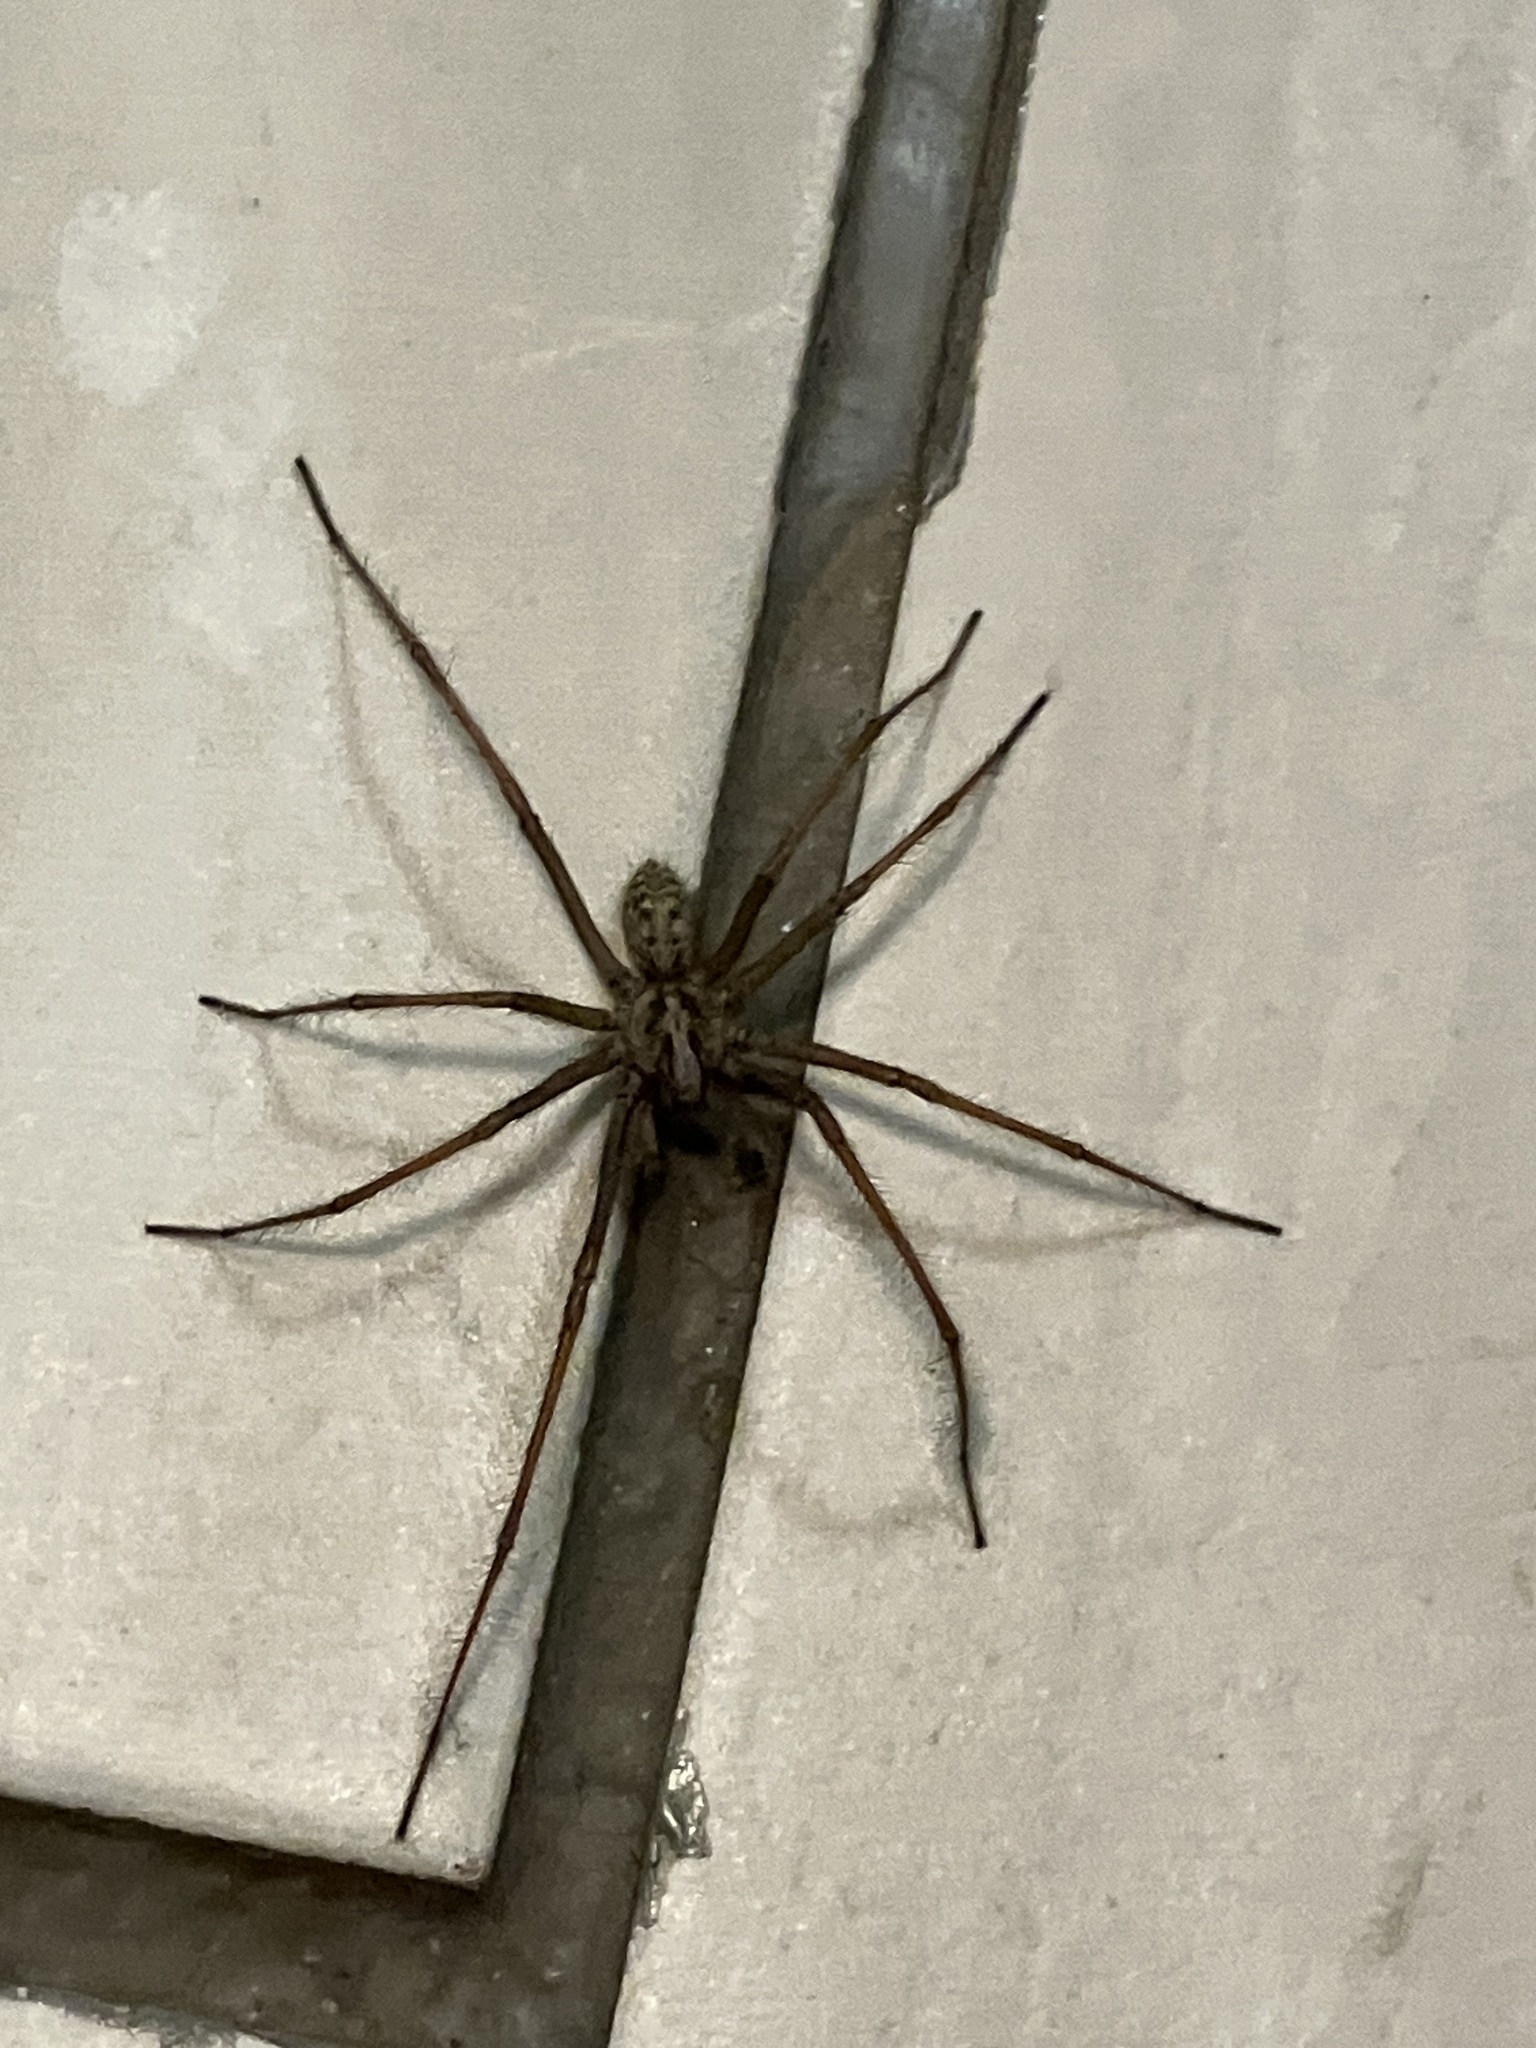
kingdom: Animalia
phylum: Arthropoda
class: Arachnida
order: Araneae
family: Agelenidae
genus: Eratigena
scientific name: Eratigena
